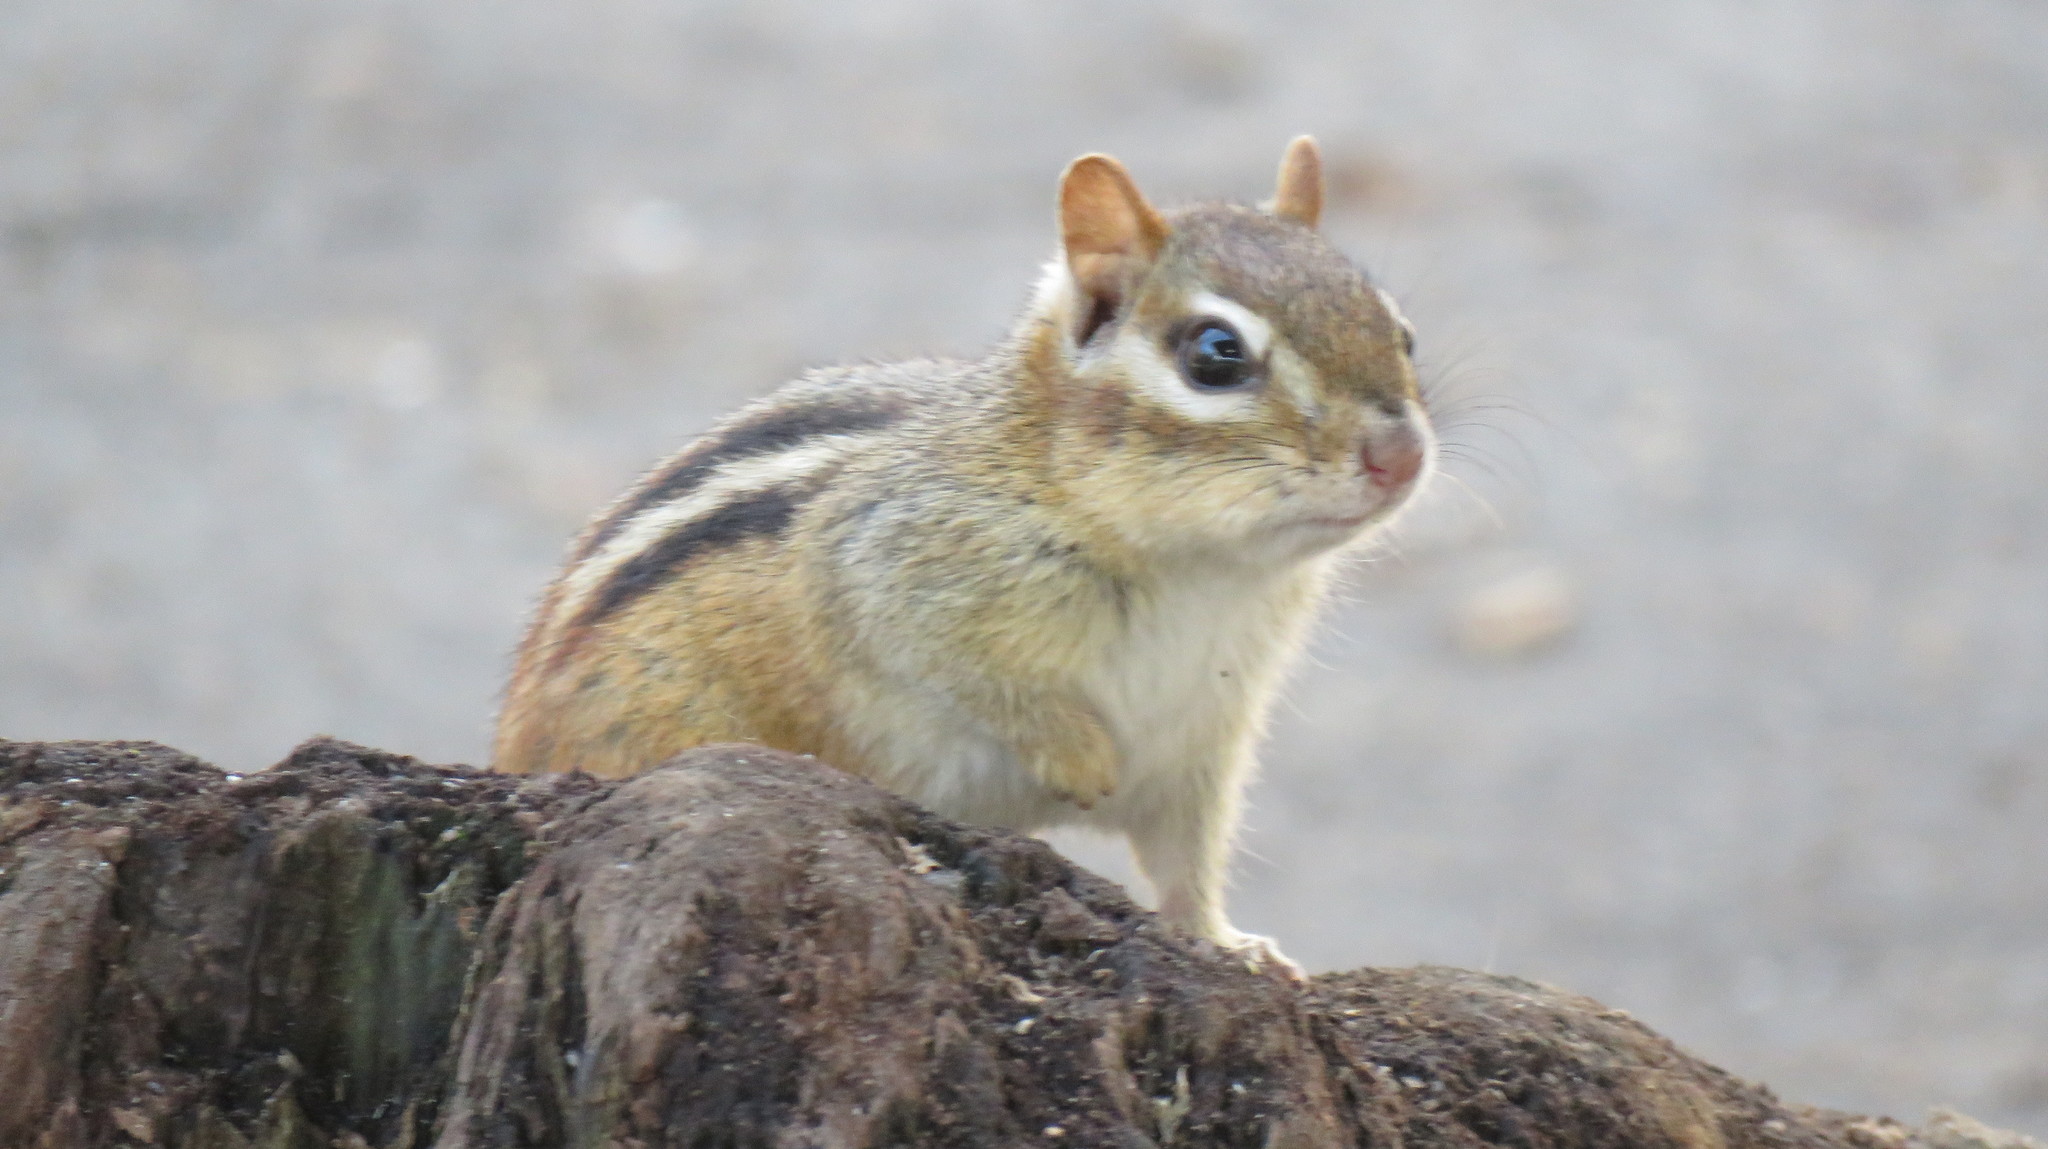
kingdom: Animalia
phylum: Chordata
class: Mammalia
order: Rodentia
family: Sciuridae
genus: Tamias
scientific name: Tamias striatus
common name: Eastern chipmunk
